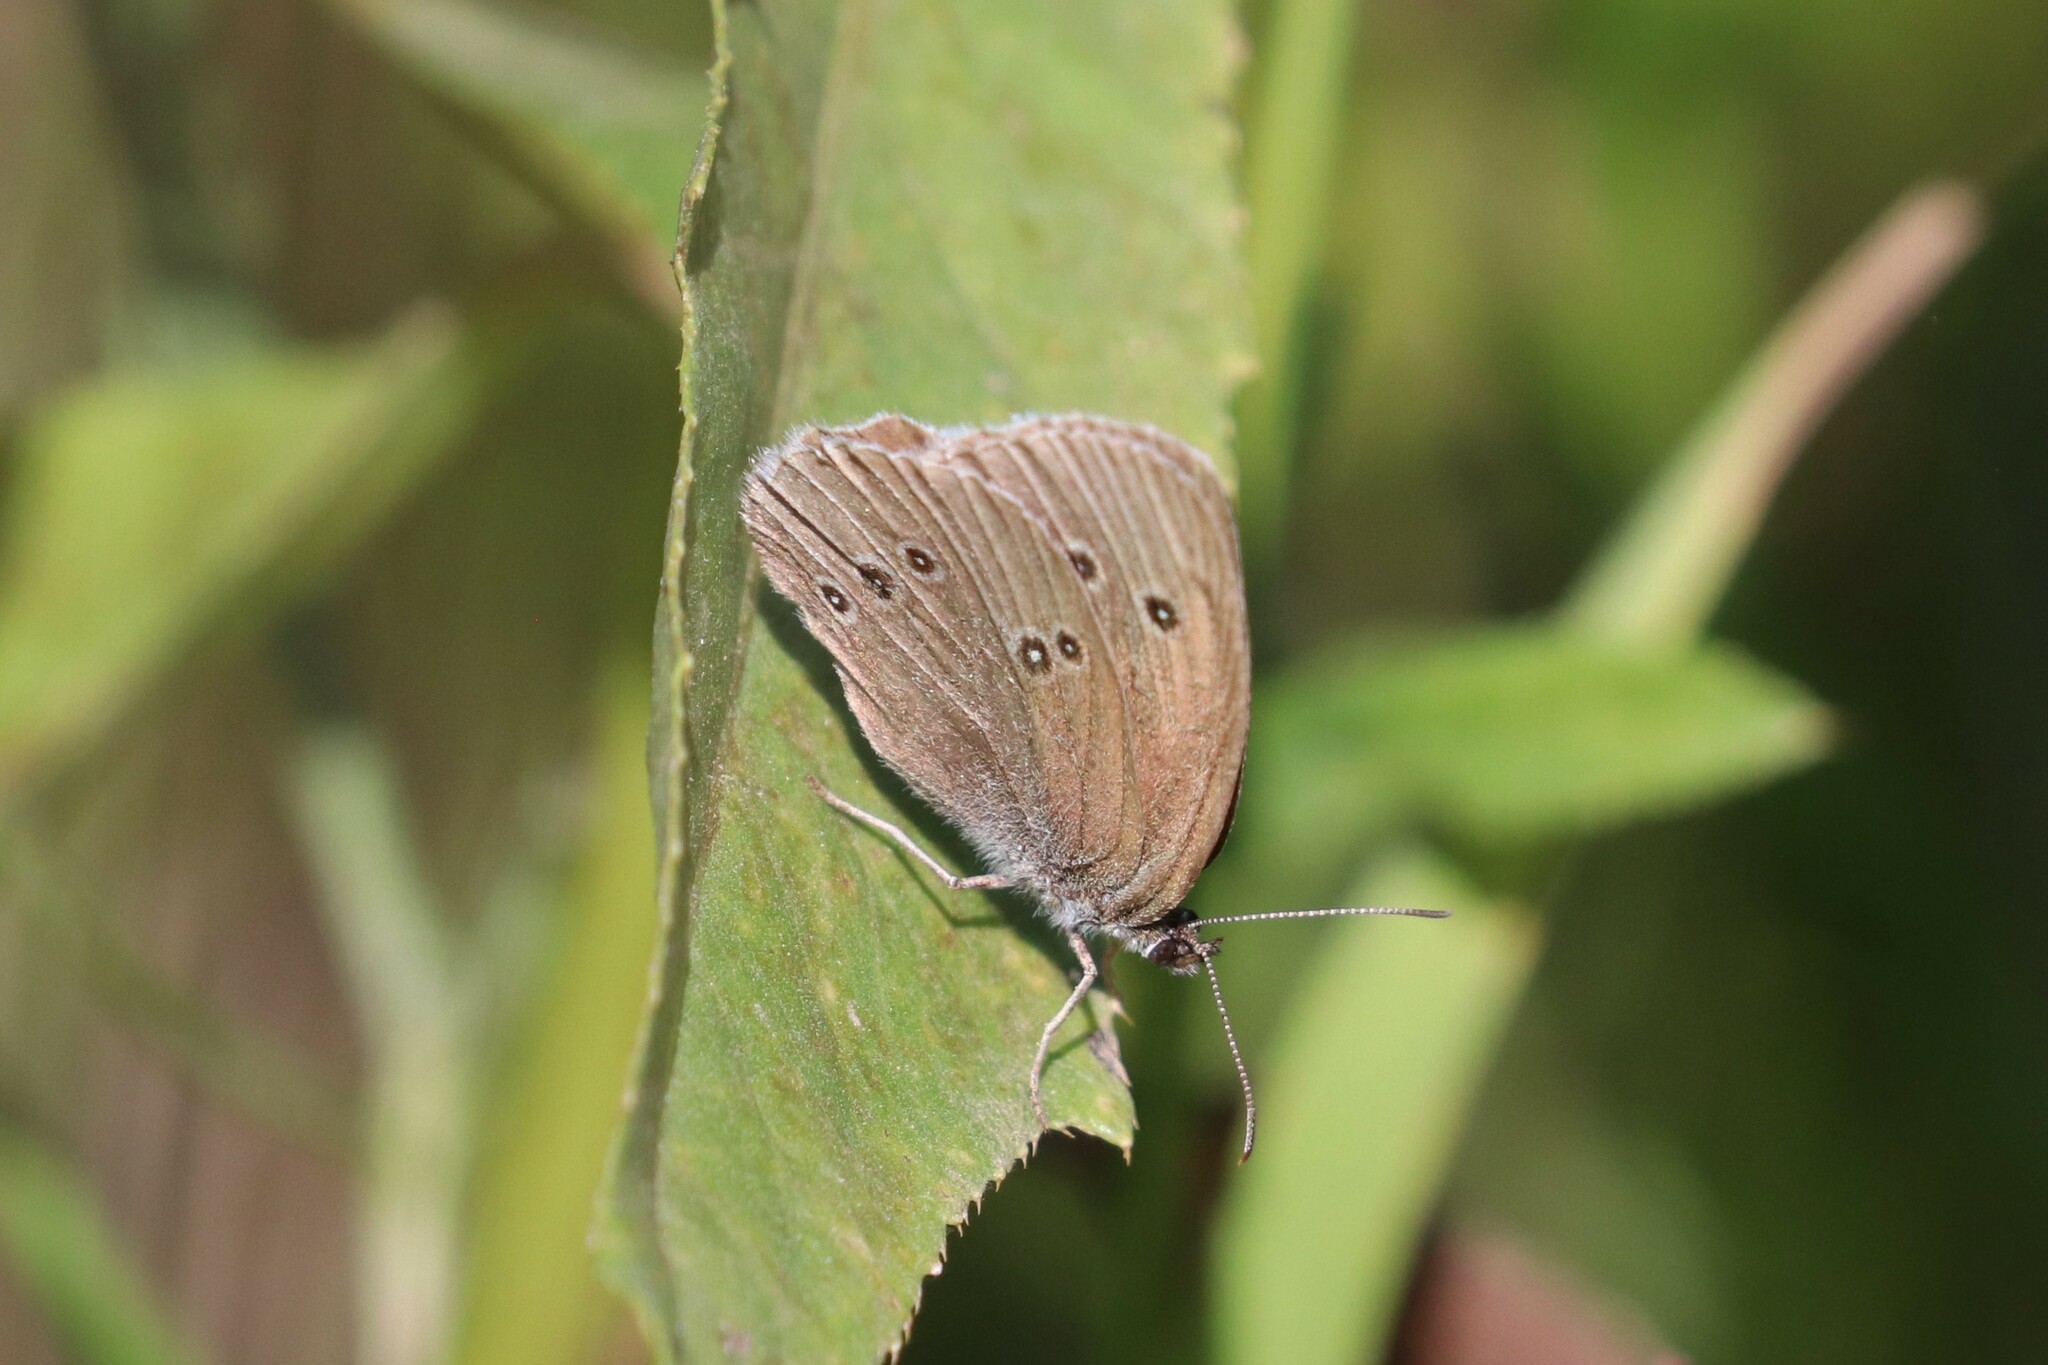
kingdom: Animalia
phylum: Arthropoda
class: Insecta
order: Lepidoptera
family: Nymphalidae
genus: Aphantopus
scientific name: Aphantopus hyperantus
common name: Ringlet
